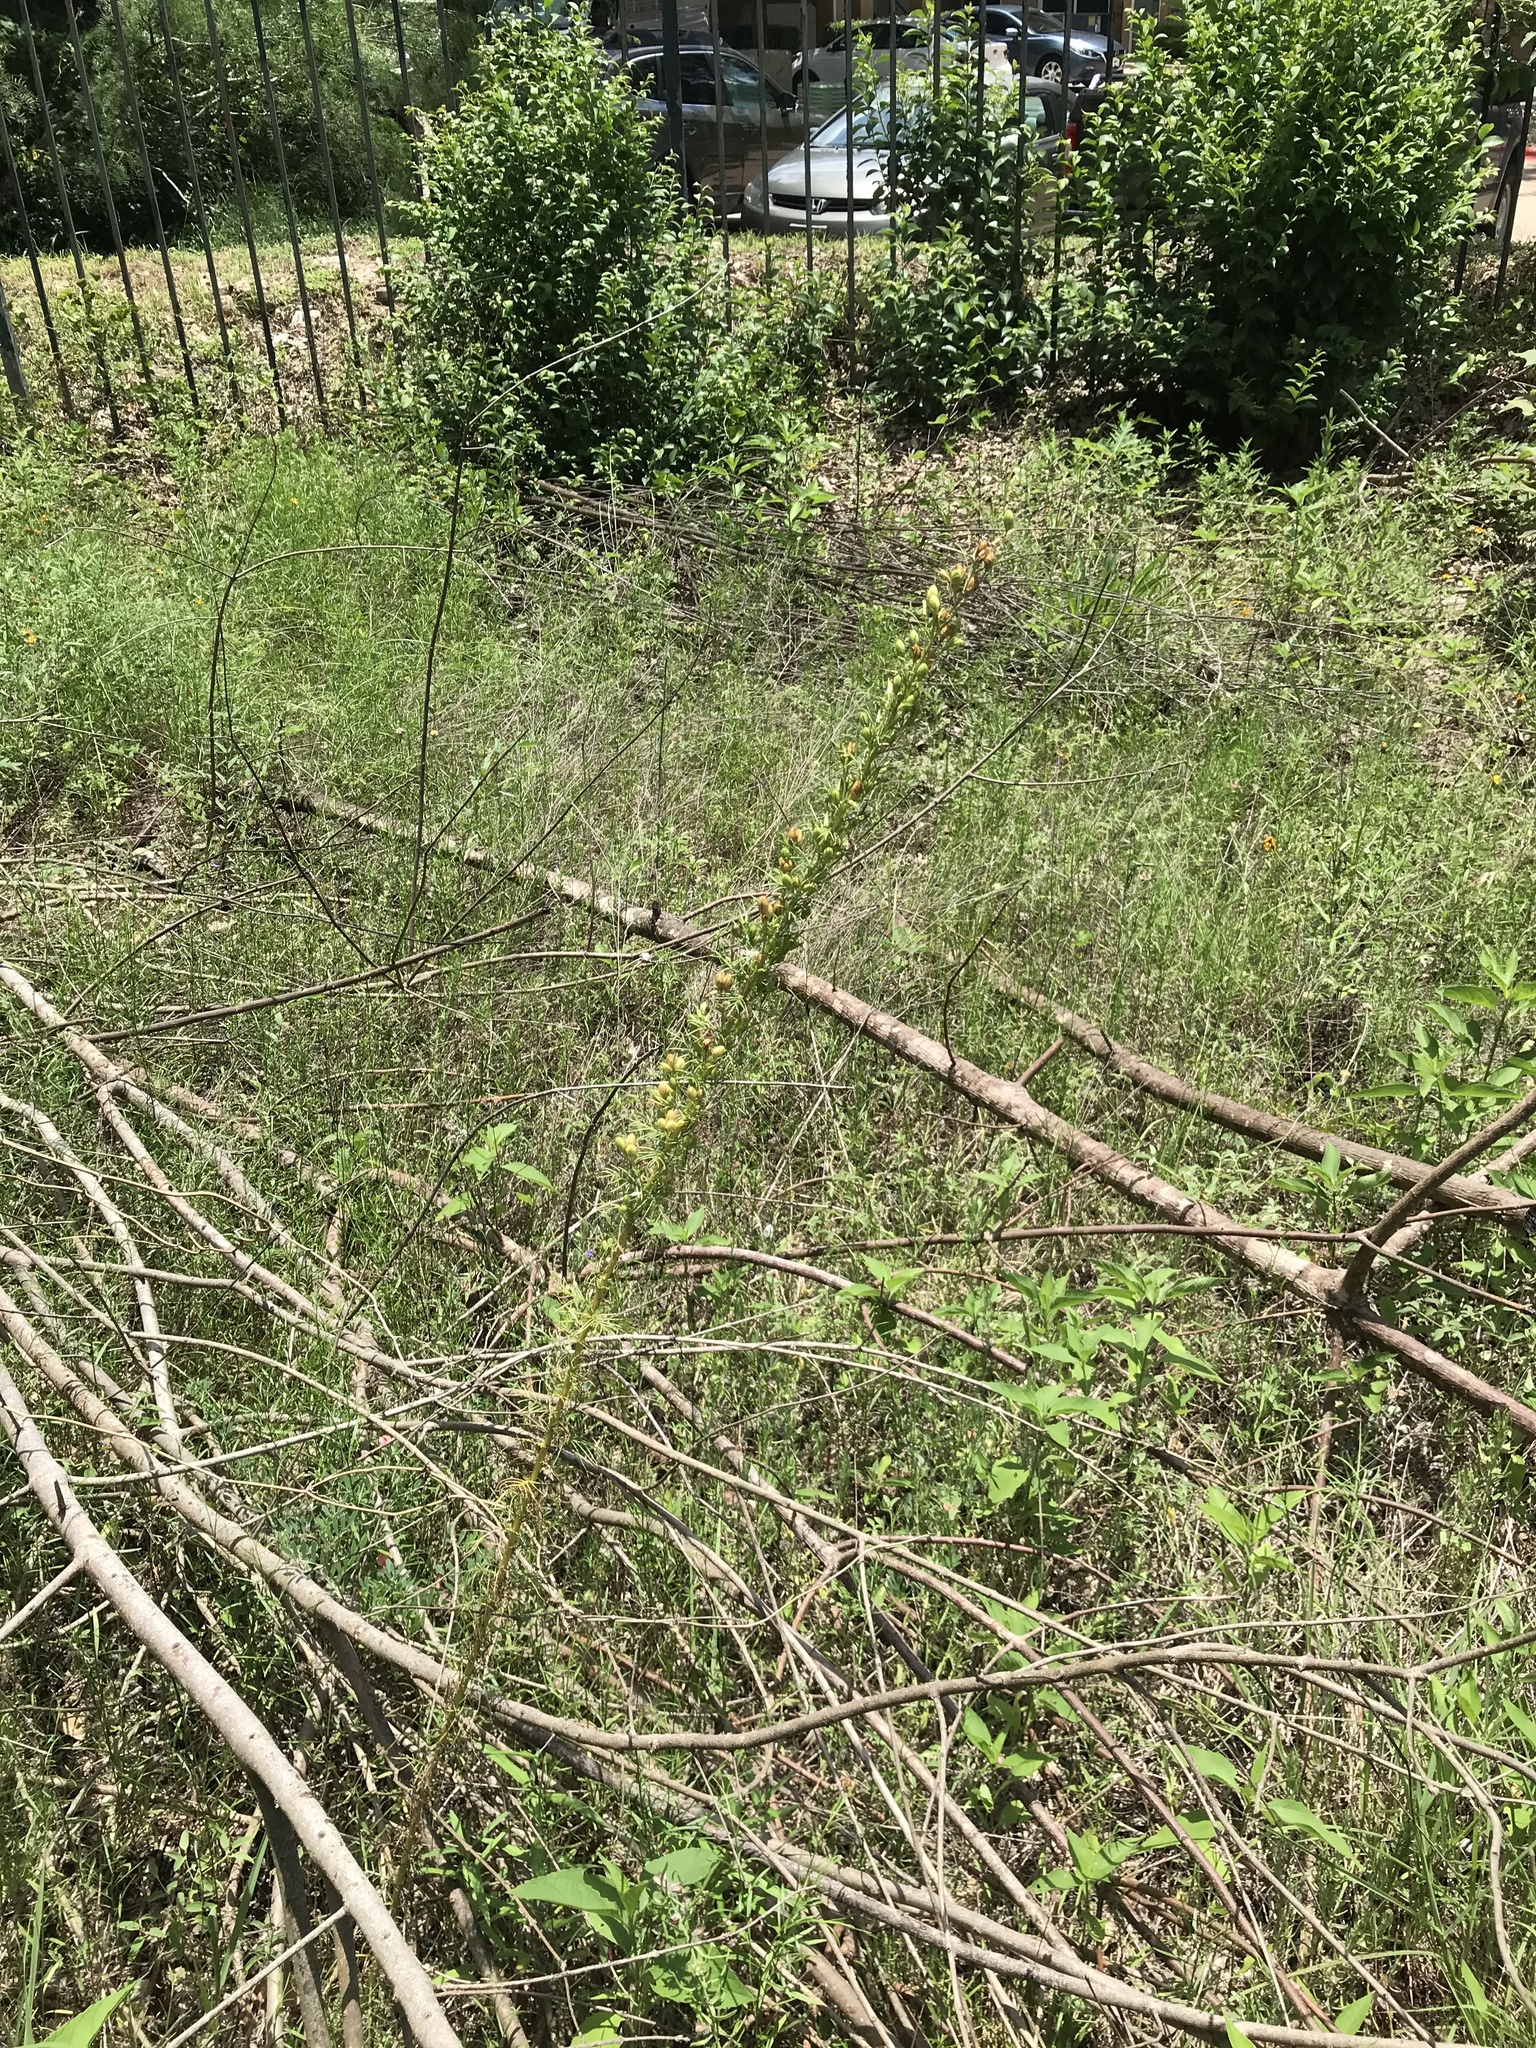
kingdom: Plantae
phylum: Tracheophyta
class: Magnoliopsida
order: Ericales
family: Polemoniaceae
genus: Ipomopsis
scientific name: Ipomopsis rubra
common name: Skyrocket
